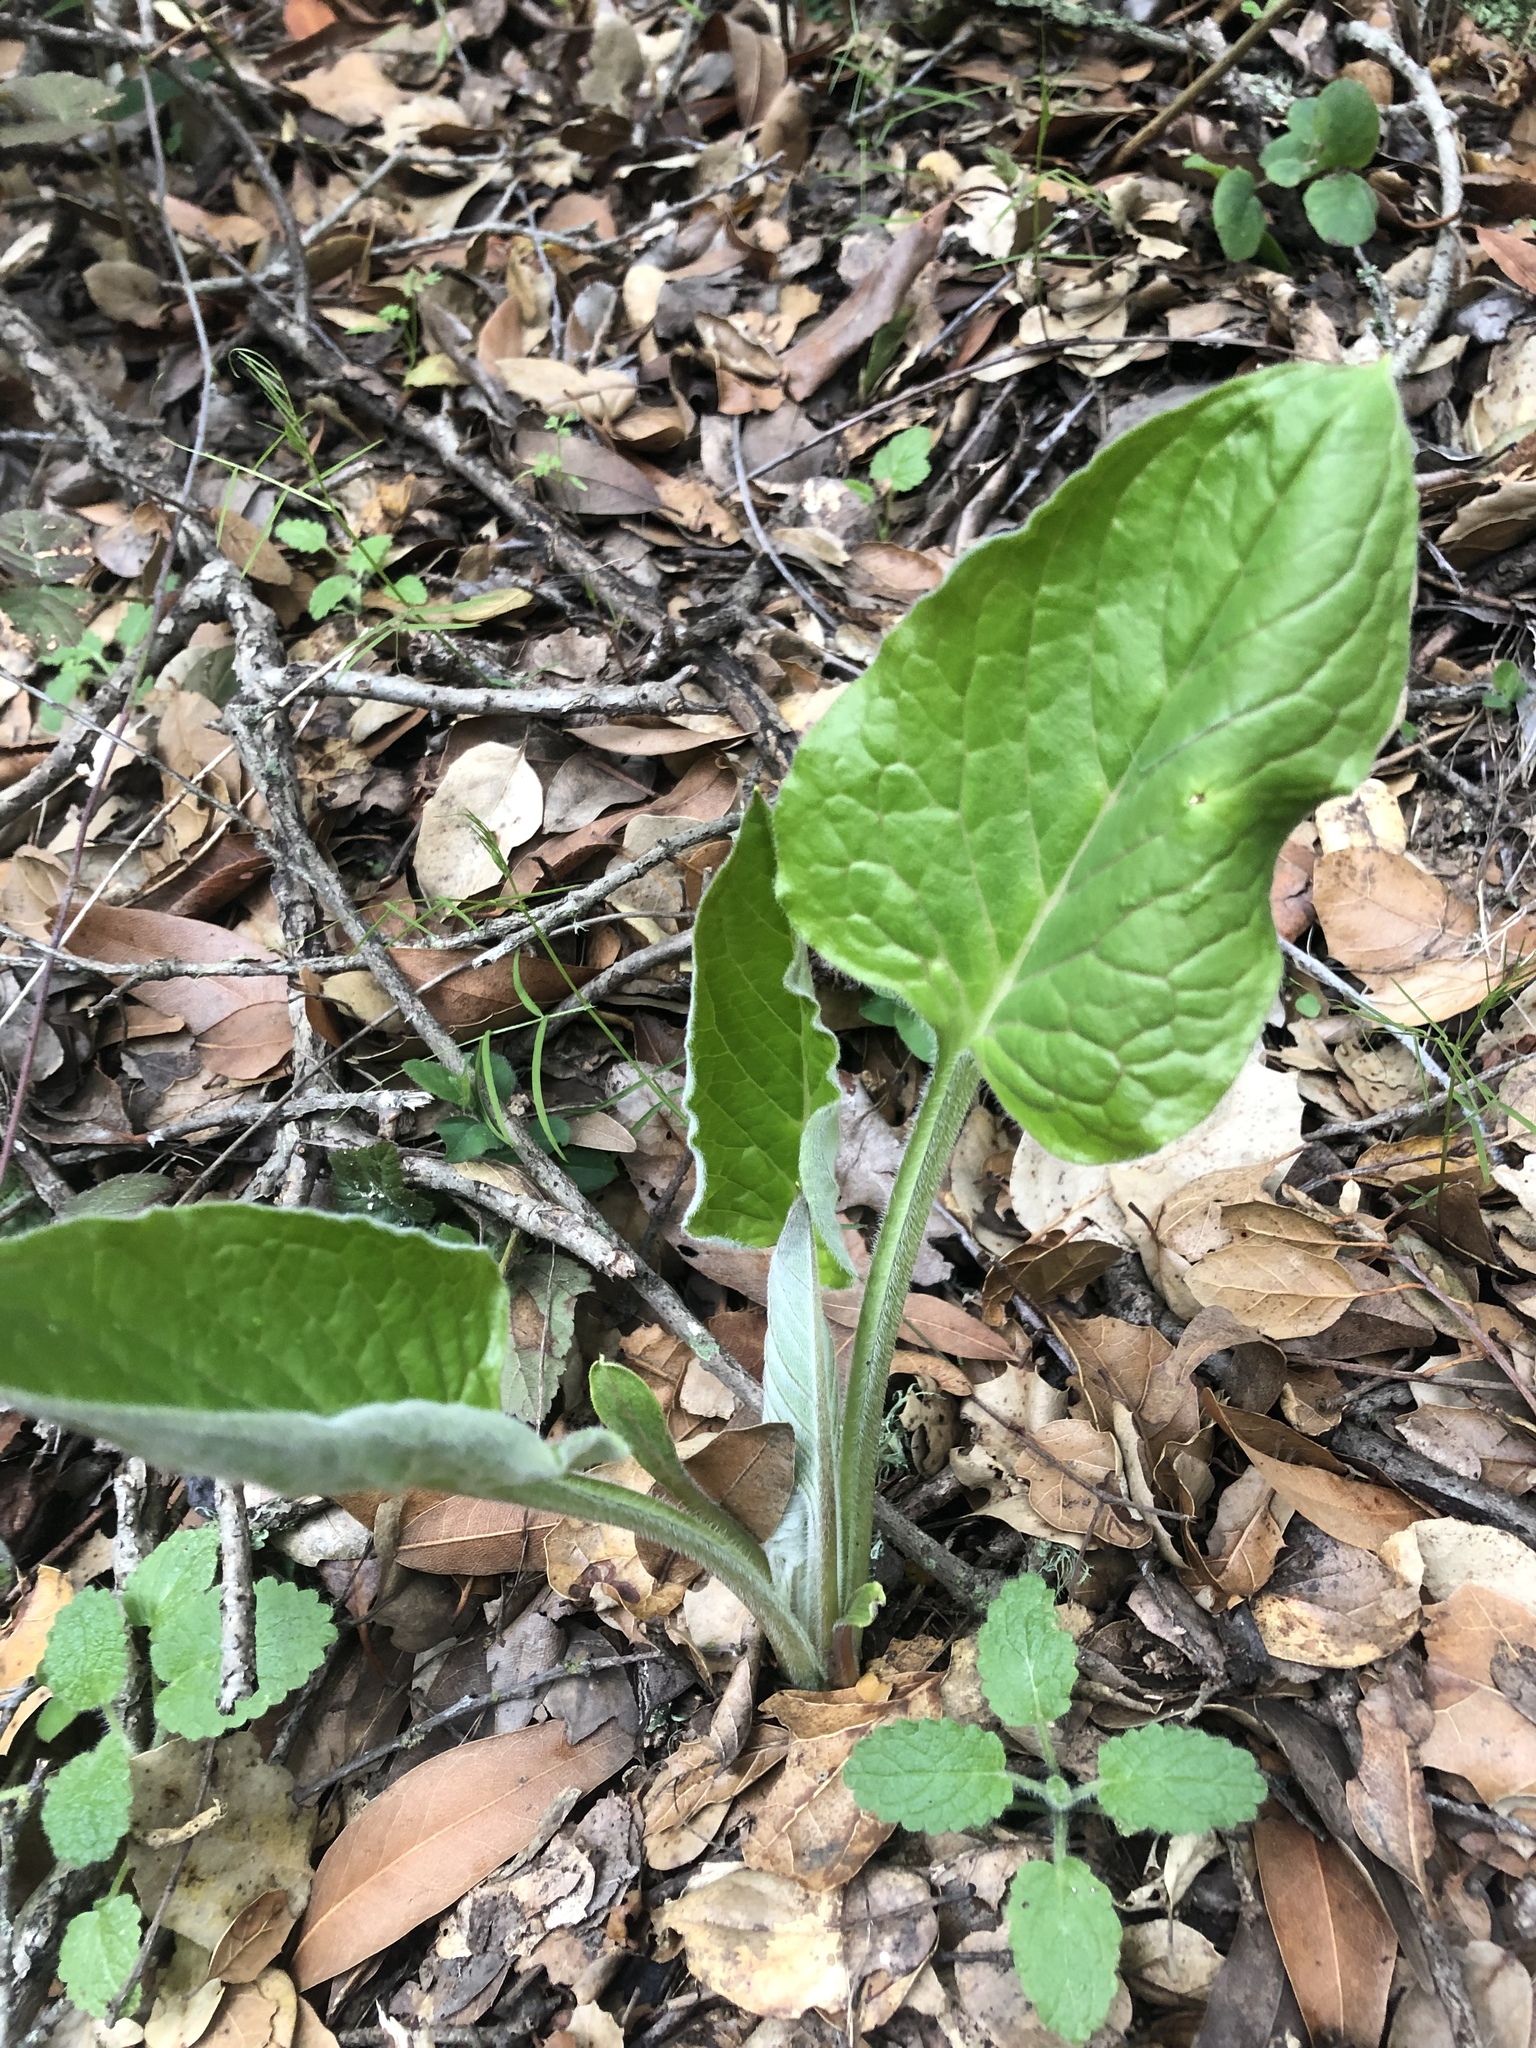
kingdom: Plantae
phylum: Tracheophyta
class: Magnoliopsida
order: Boraginales
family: Boraginaceae
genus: Adelinia
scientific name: Adelinia grande
